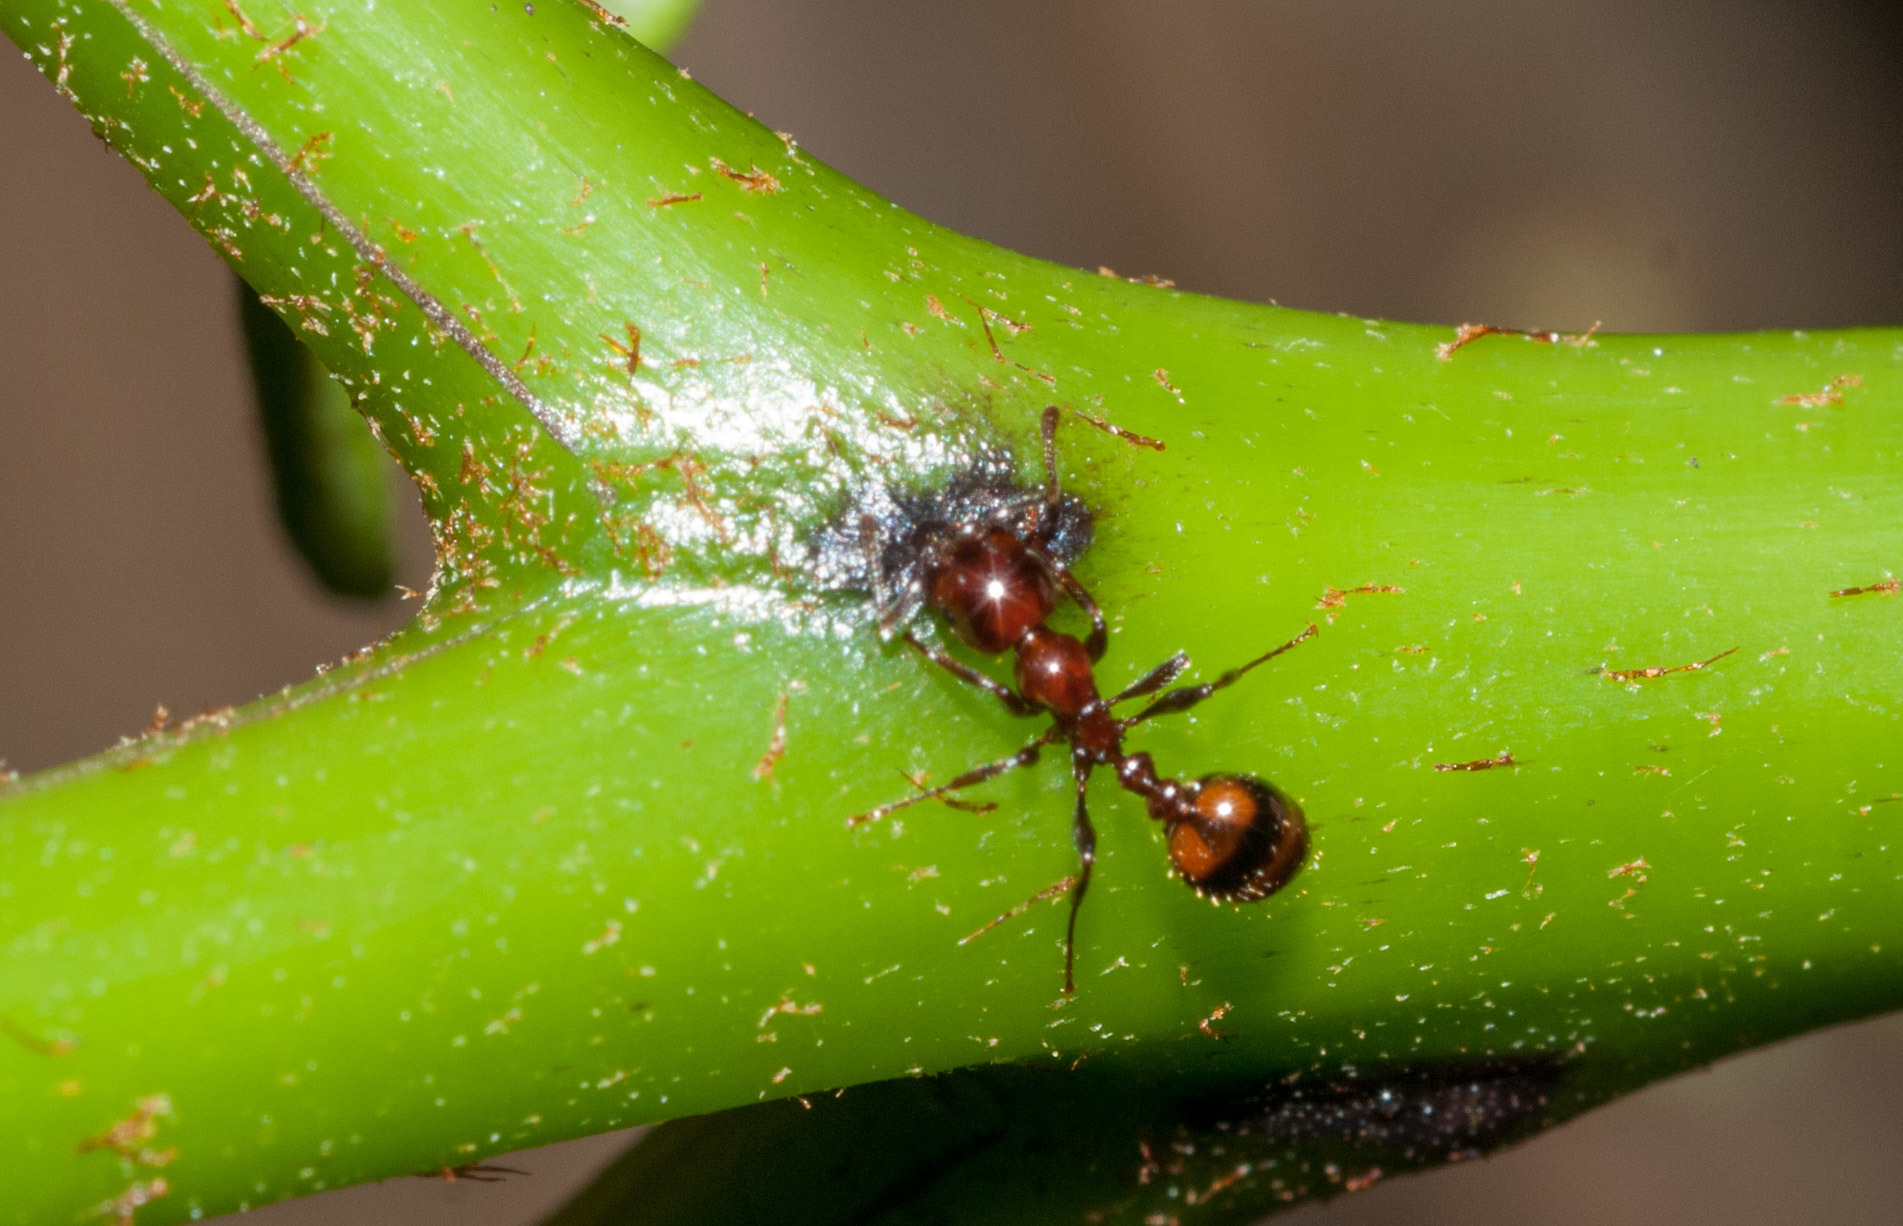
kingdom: Animalia
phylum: Arthropoda
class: Insecta
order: Hymenoptera
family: Formicidae
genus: Chelaner
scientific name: Chelaner
